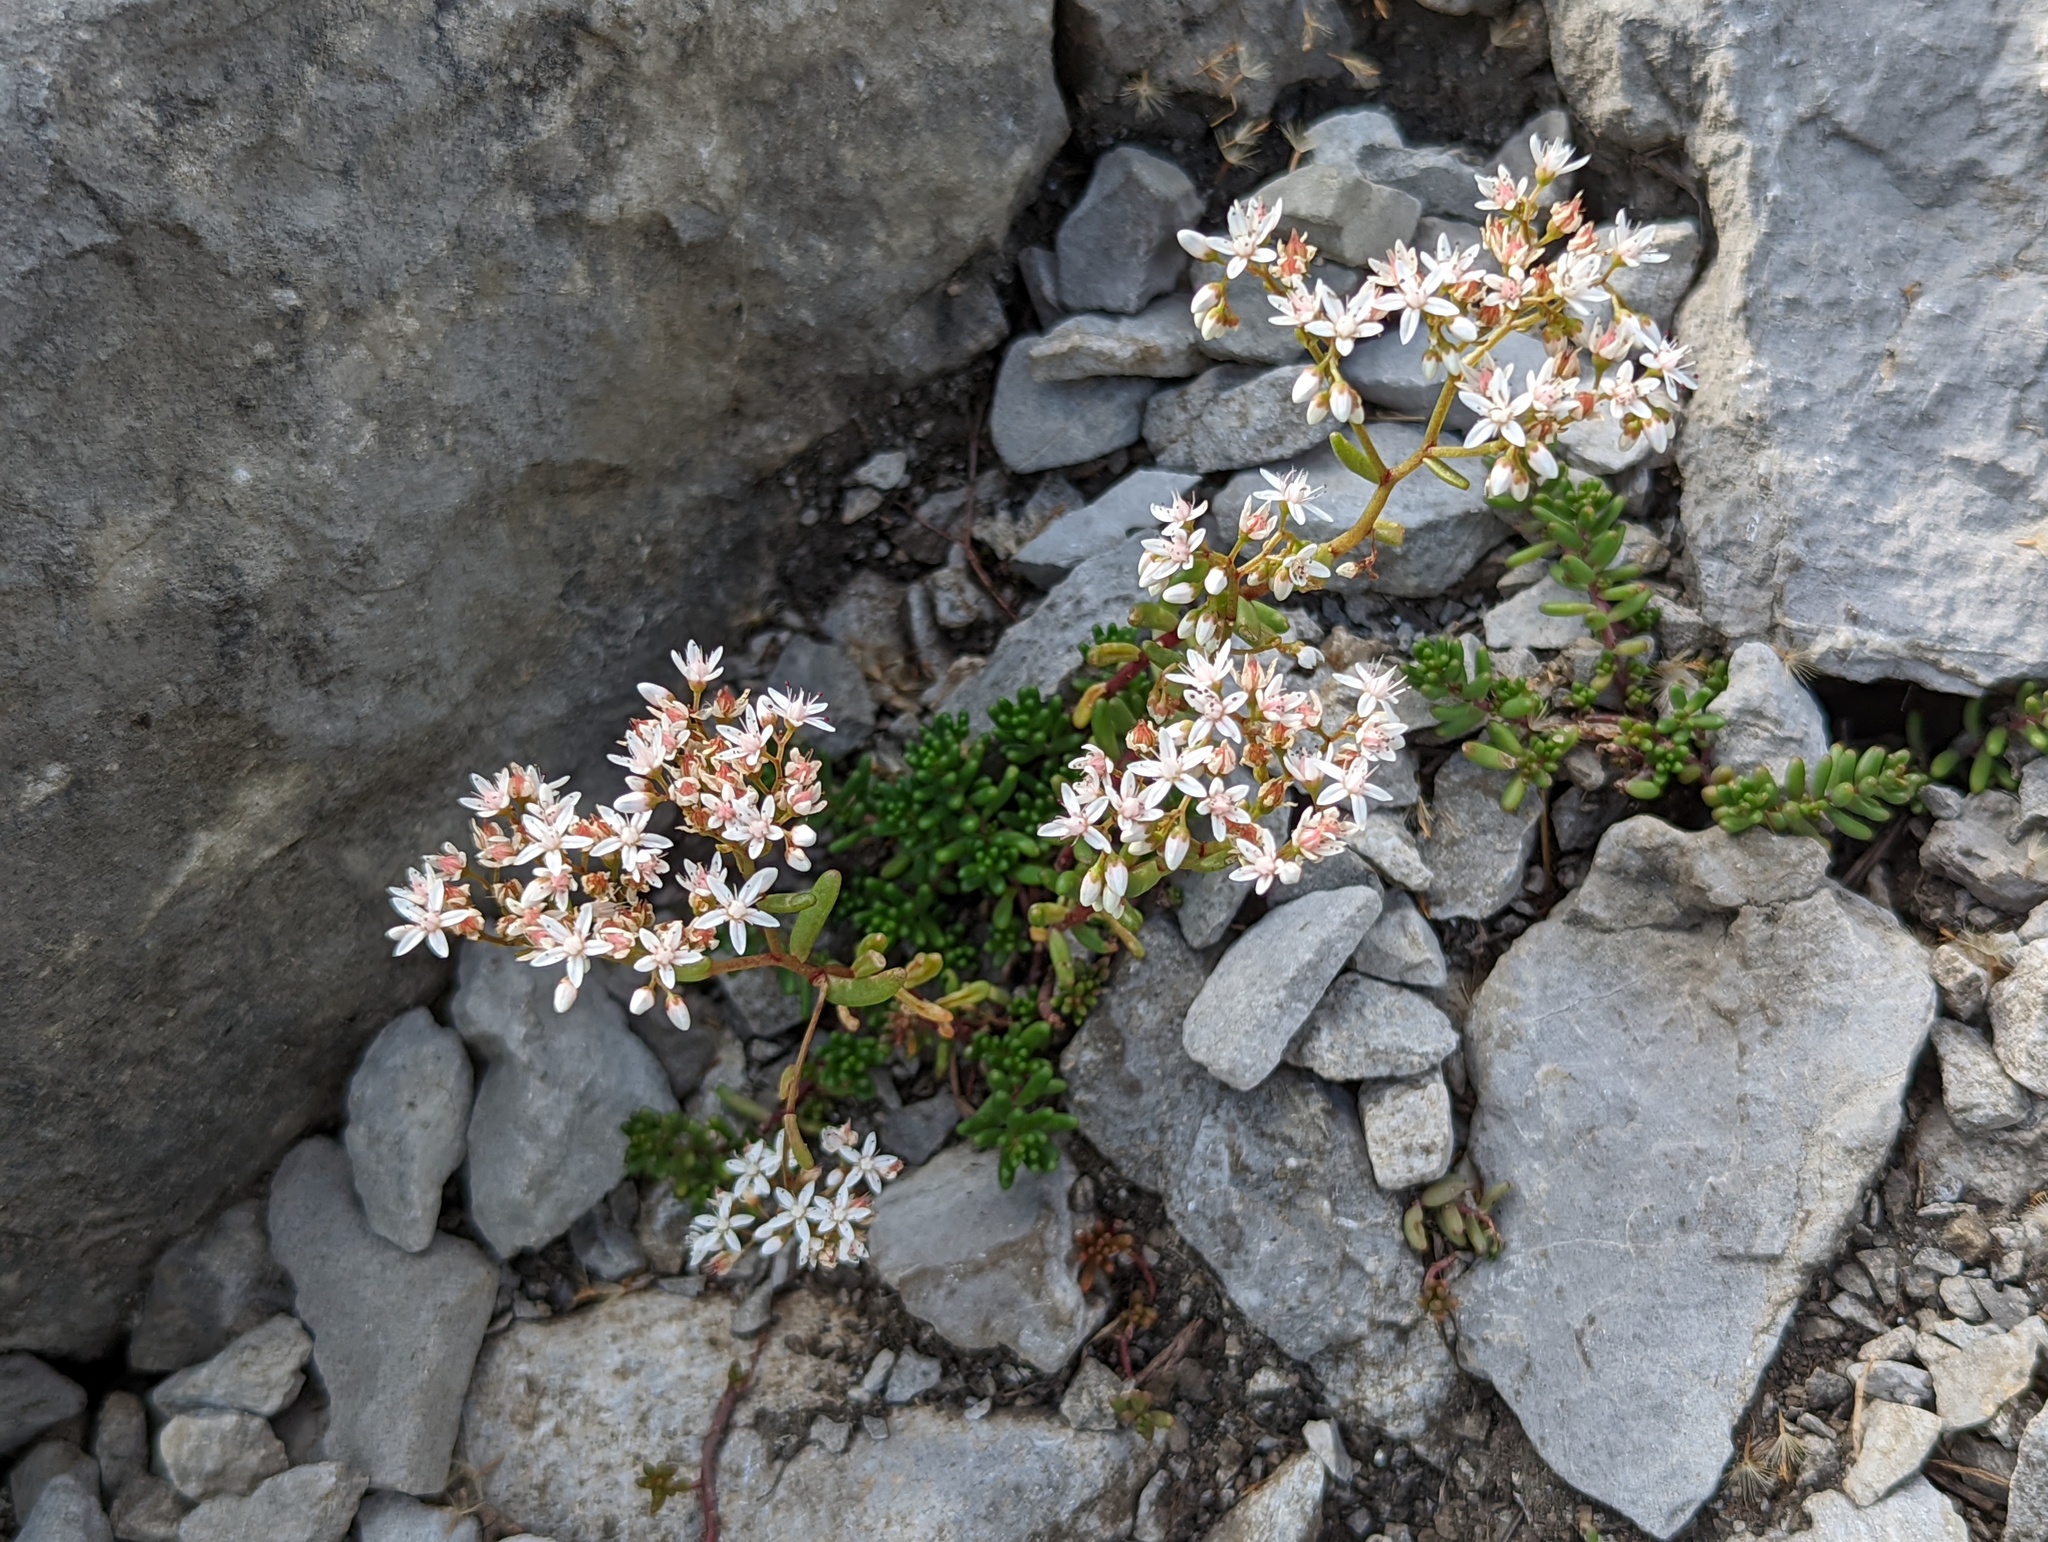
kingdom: Plantae
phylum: Tracheophyta
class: Magnoliopsida
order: Saxifragales
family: Crassulaceae
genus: Sedum
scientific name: Sedum album
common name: White stonecrop
